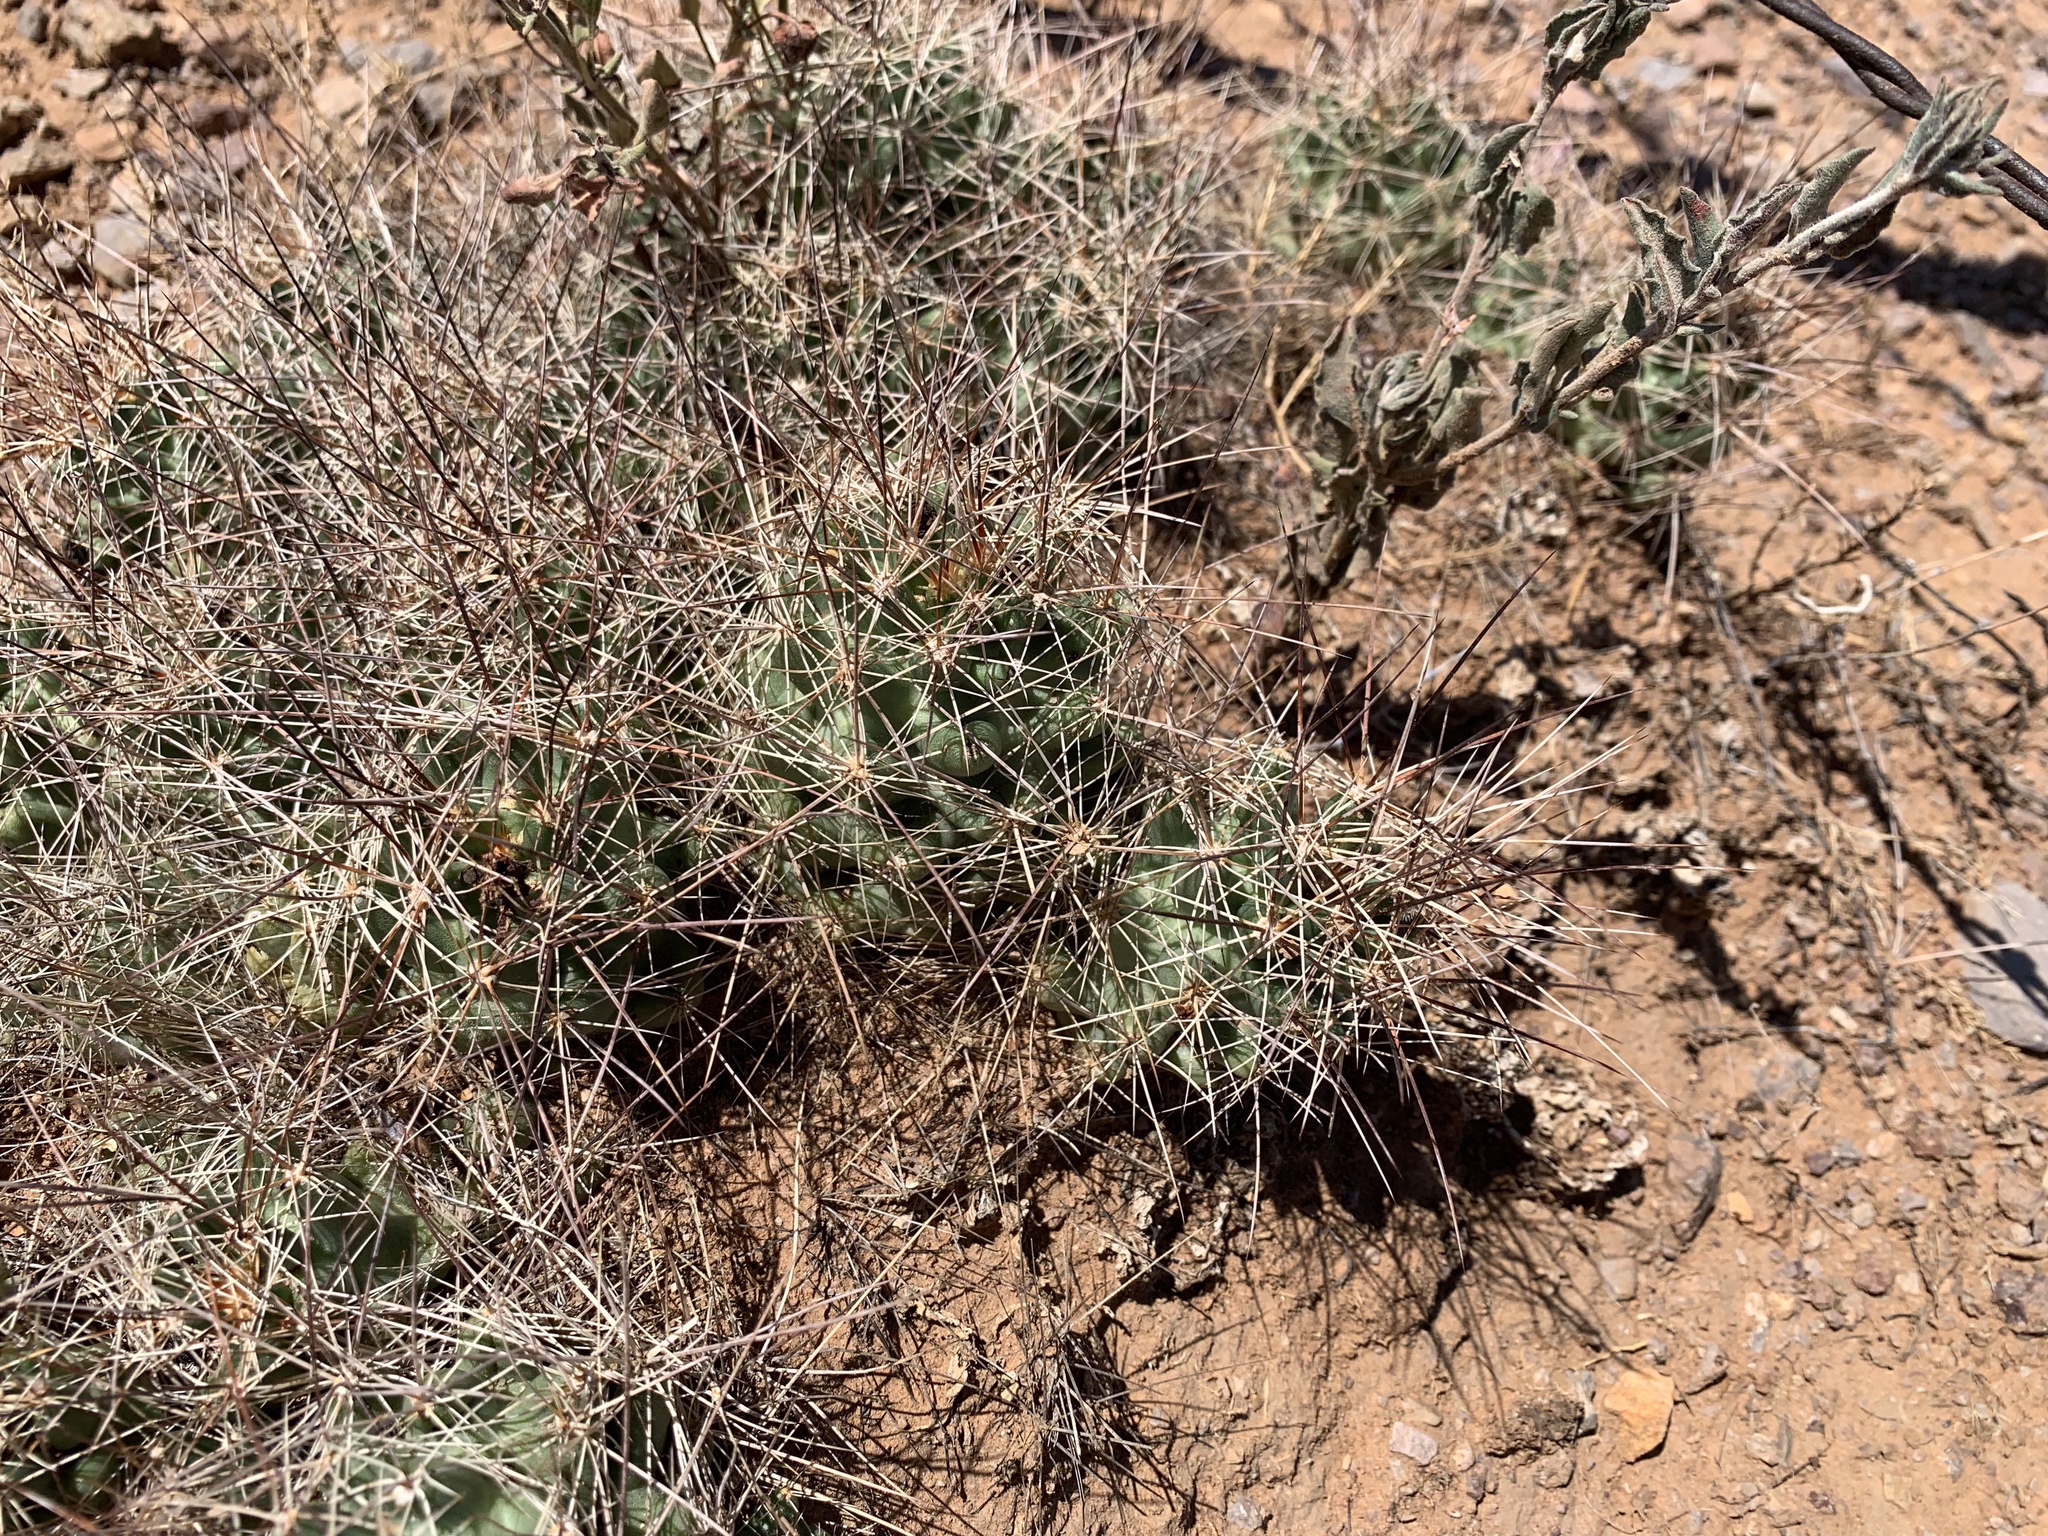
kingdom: Plantae
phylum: Tracheophyta
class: Magnoliopsida
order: Caryophyllales
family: Cactaceae
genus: Coryphantha
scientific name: Coryphantha macromeris
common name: Nipple beehive cactus
